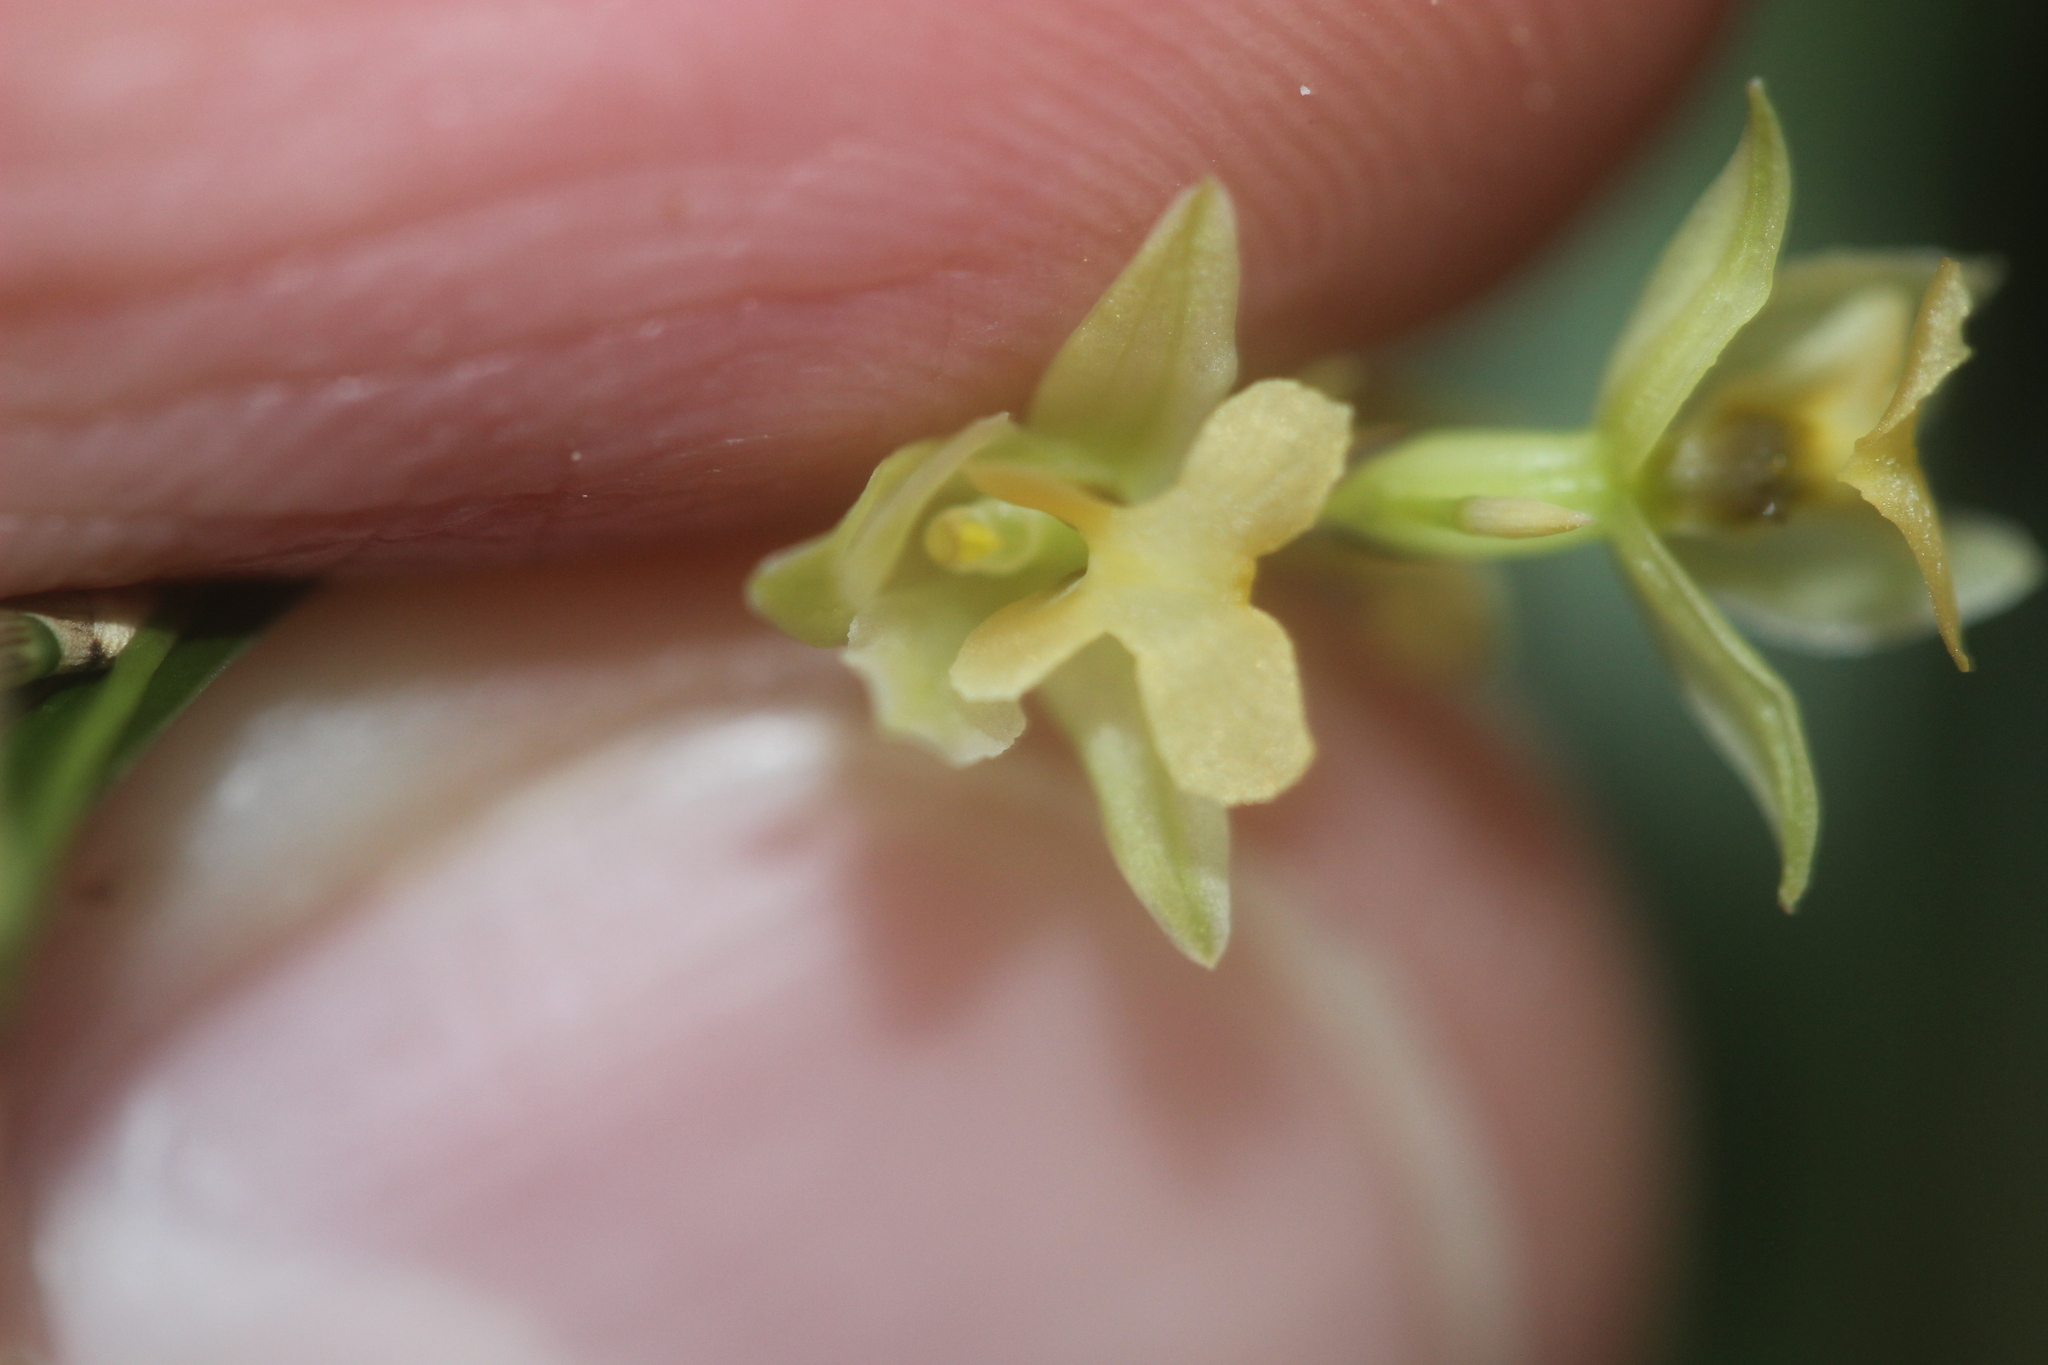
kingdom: Plantae
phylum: Tracheophyta
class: Liliopsida
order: Asparagales
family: Orchidaceae
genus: Earina
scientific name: Earina mucronata
